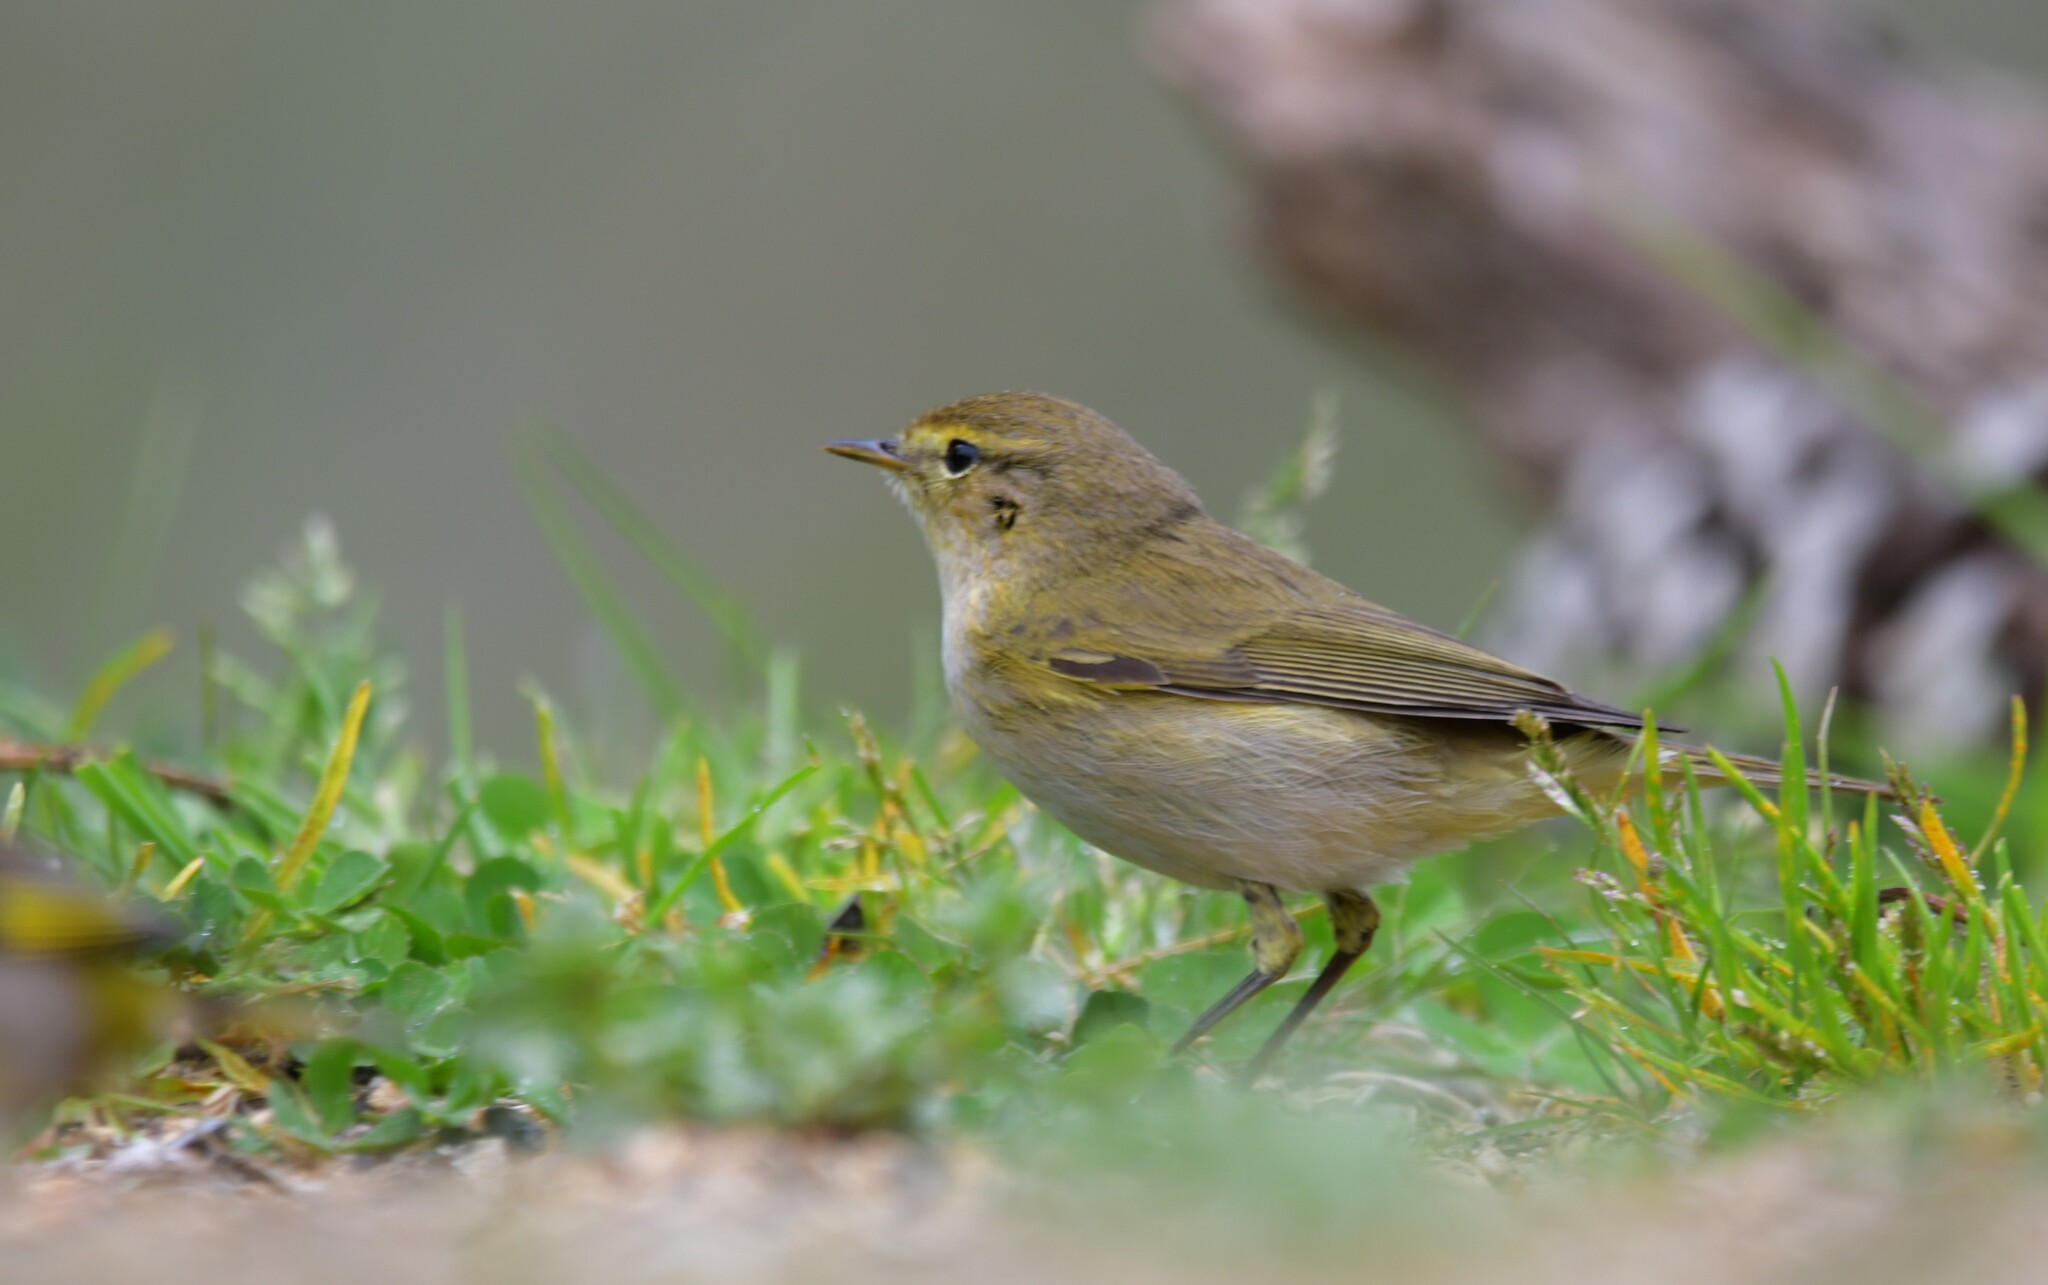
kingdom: Animalia
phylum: Chordata
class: Aves
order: Passeriformes
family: Phylloscopidae
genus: Phylloscopus
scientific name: Phylloscopus ibericus
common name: Iberian chiffchaff
